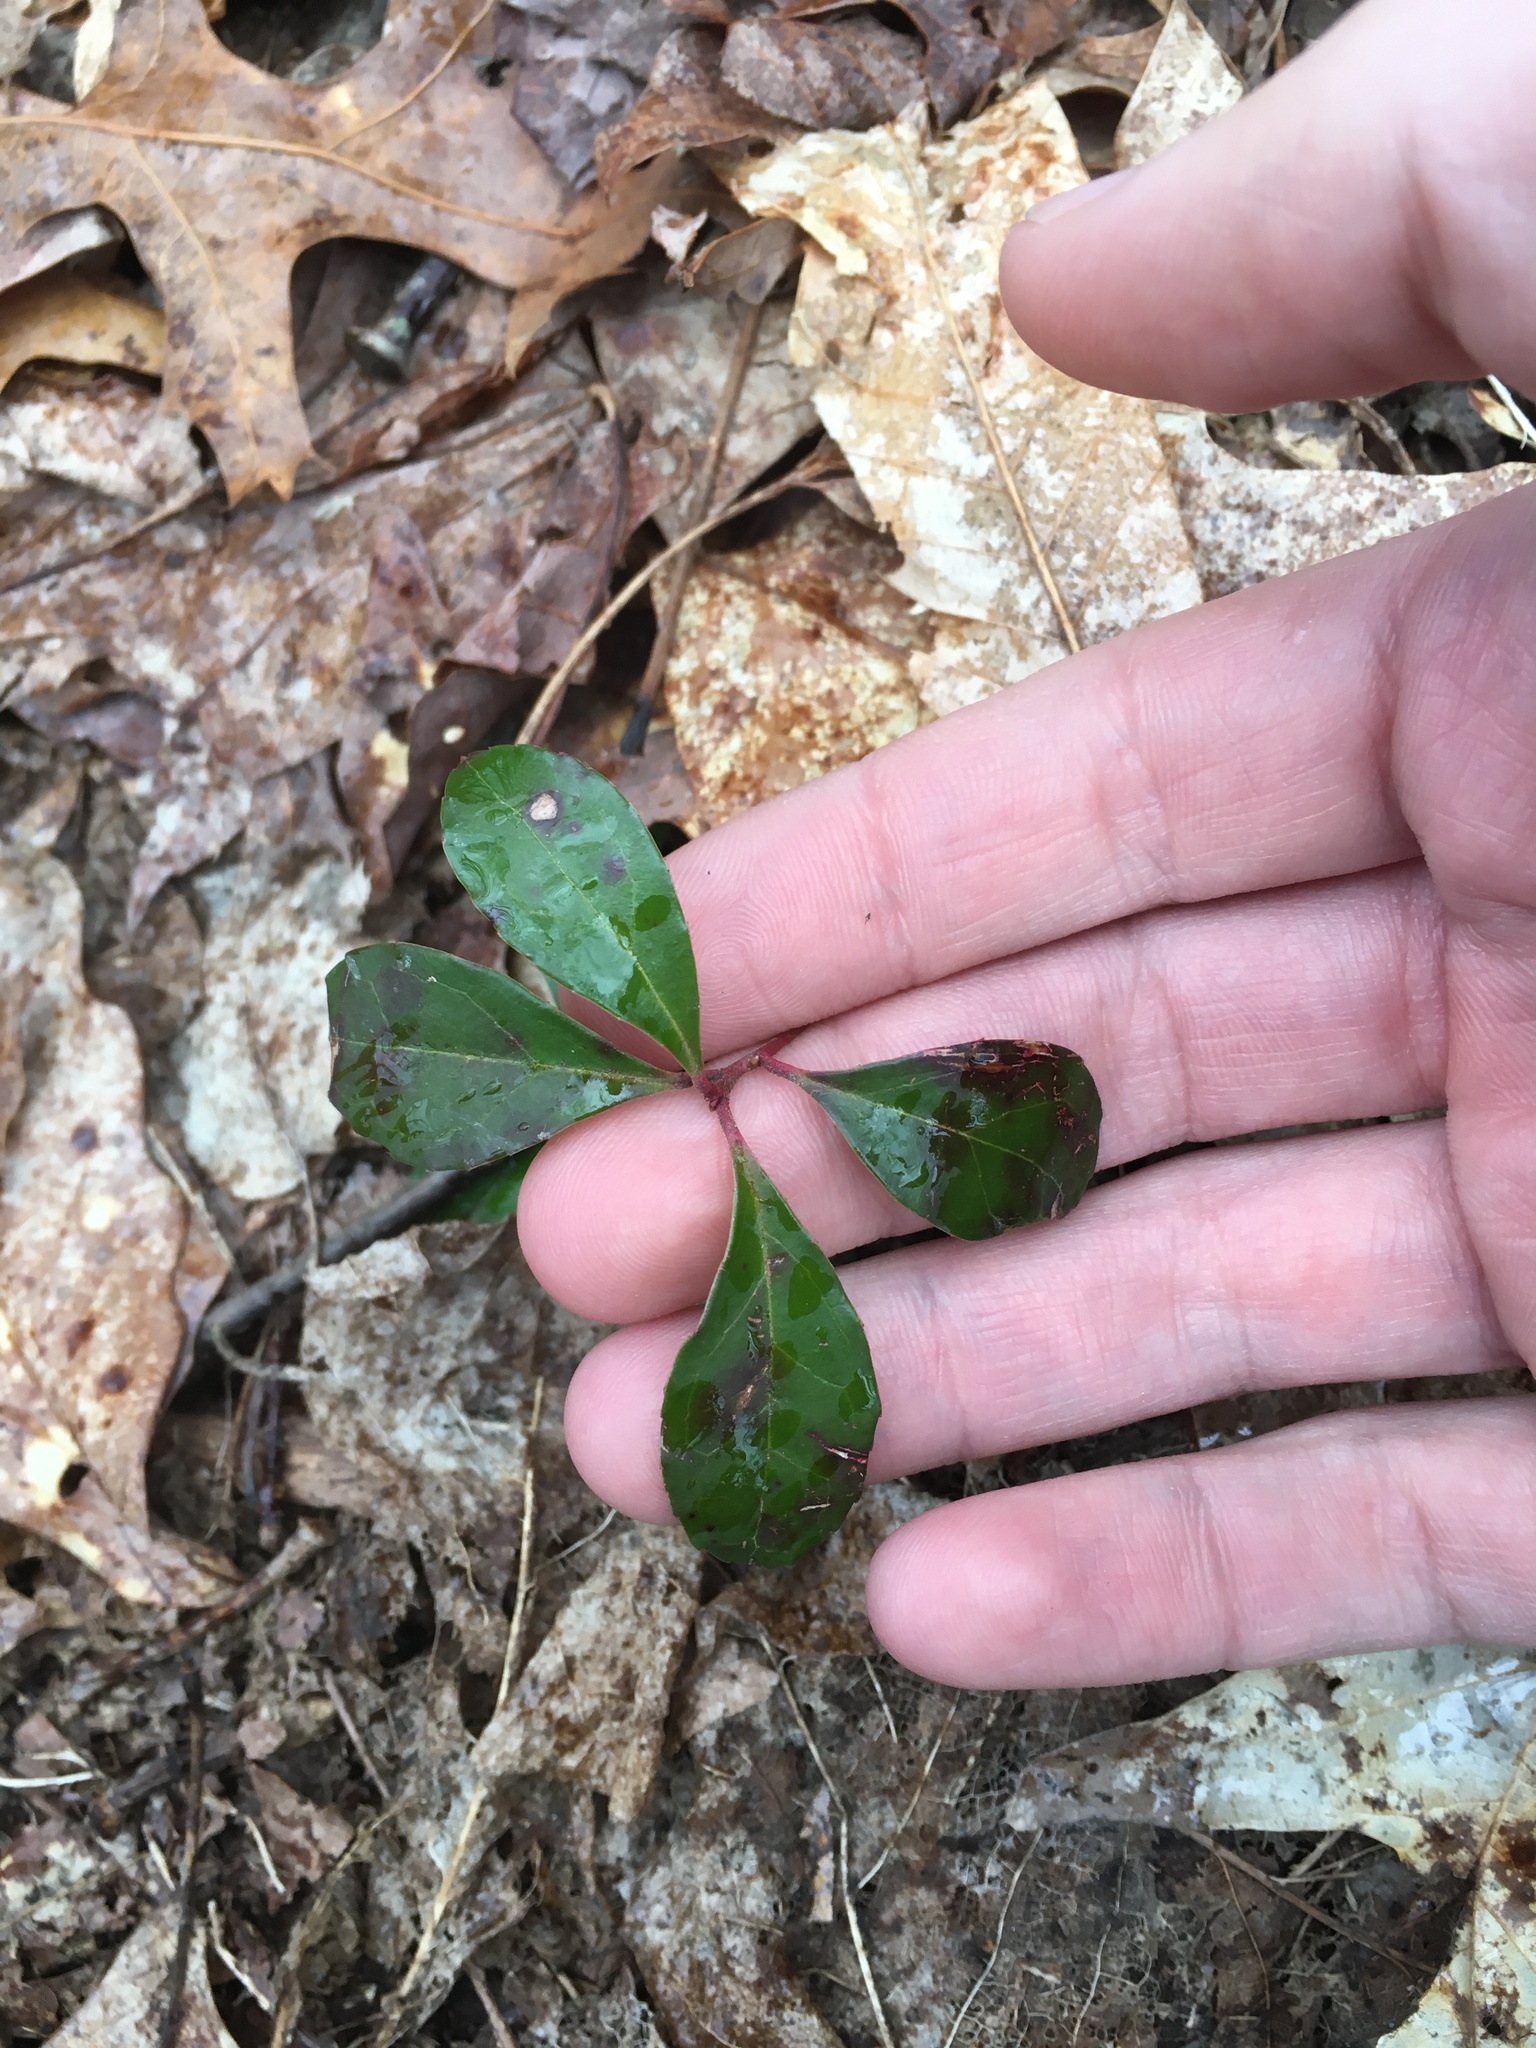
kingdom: Plantae
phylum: Tracheophyta
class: Magnoliopsida
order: Ericales
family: Ericaceae
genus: Gaultheria
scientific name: Gaultheria procumbens
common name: Checkerberry
